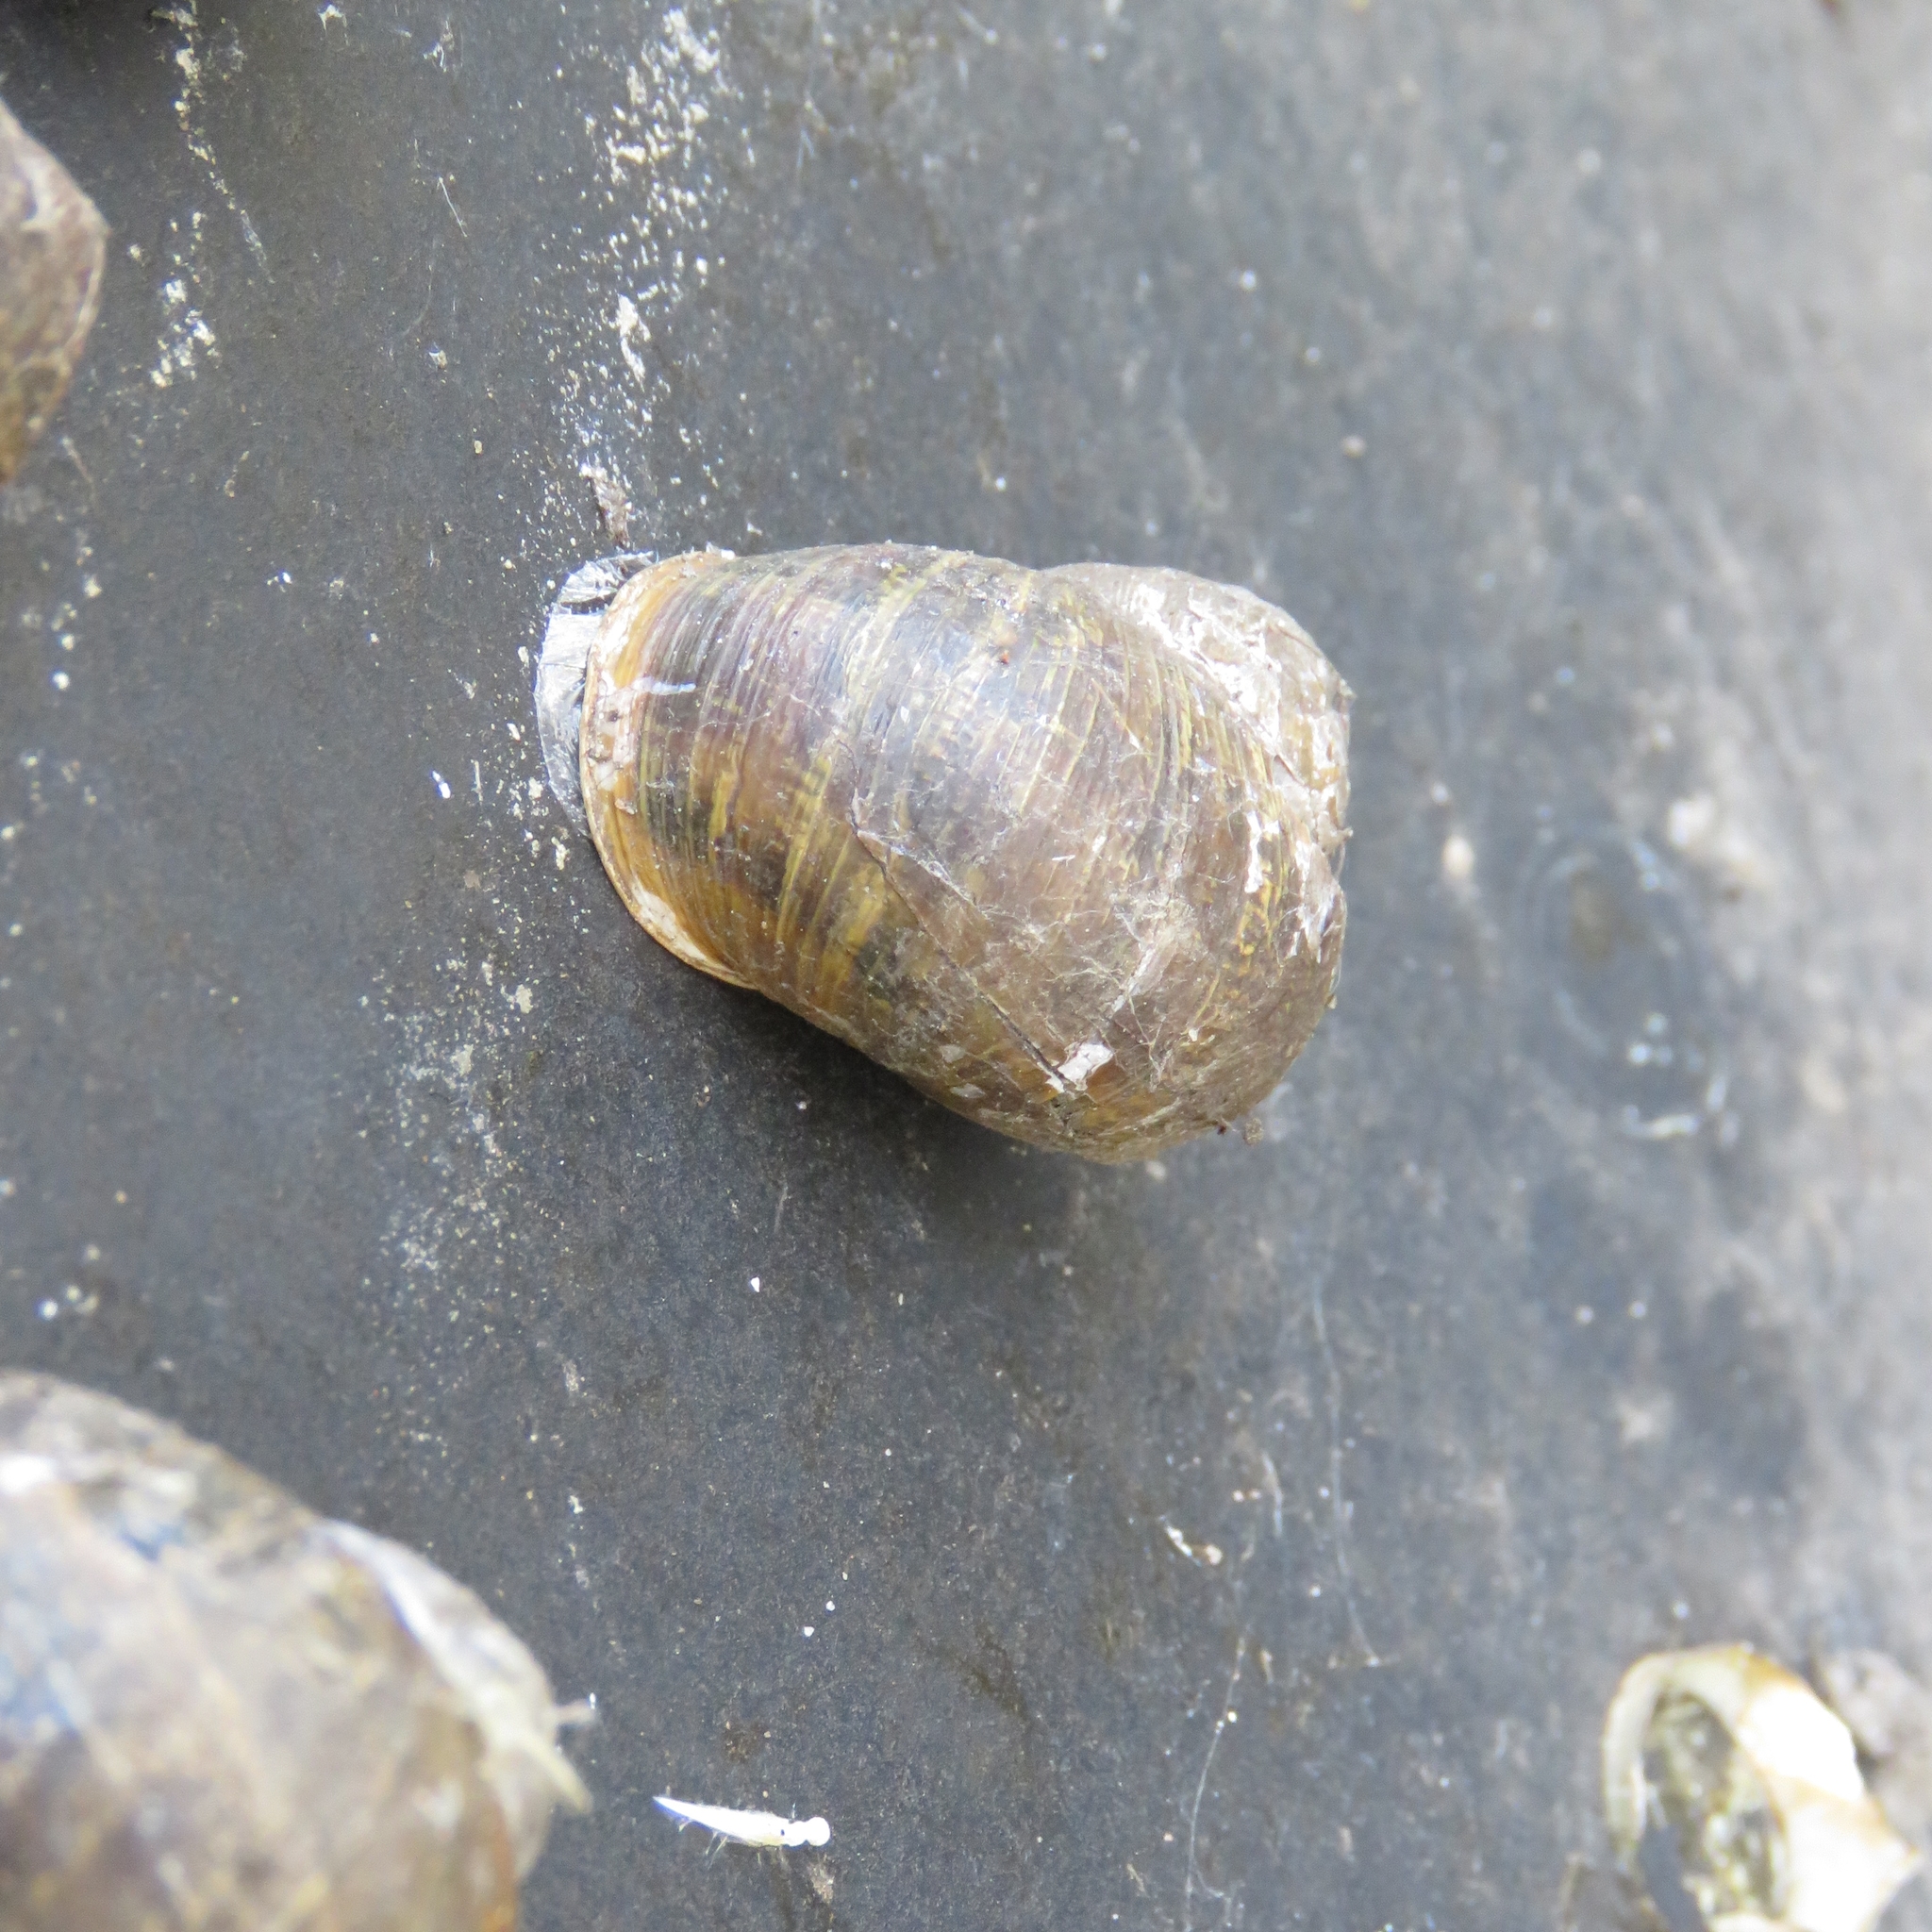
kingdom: Animalia
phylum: Mollusca
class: Gastropoda
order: Stylommatophora
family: Helicidae
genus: Cornu
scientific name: Cornu aspersum
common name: Brown garden snail
